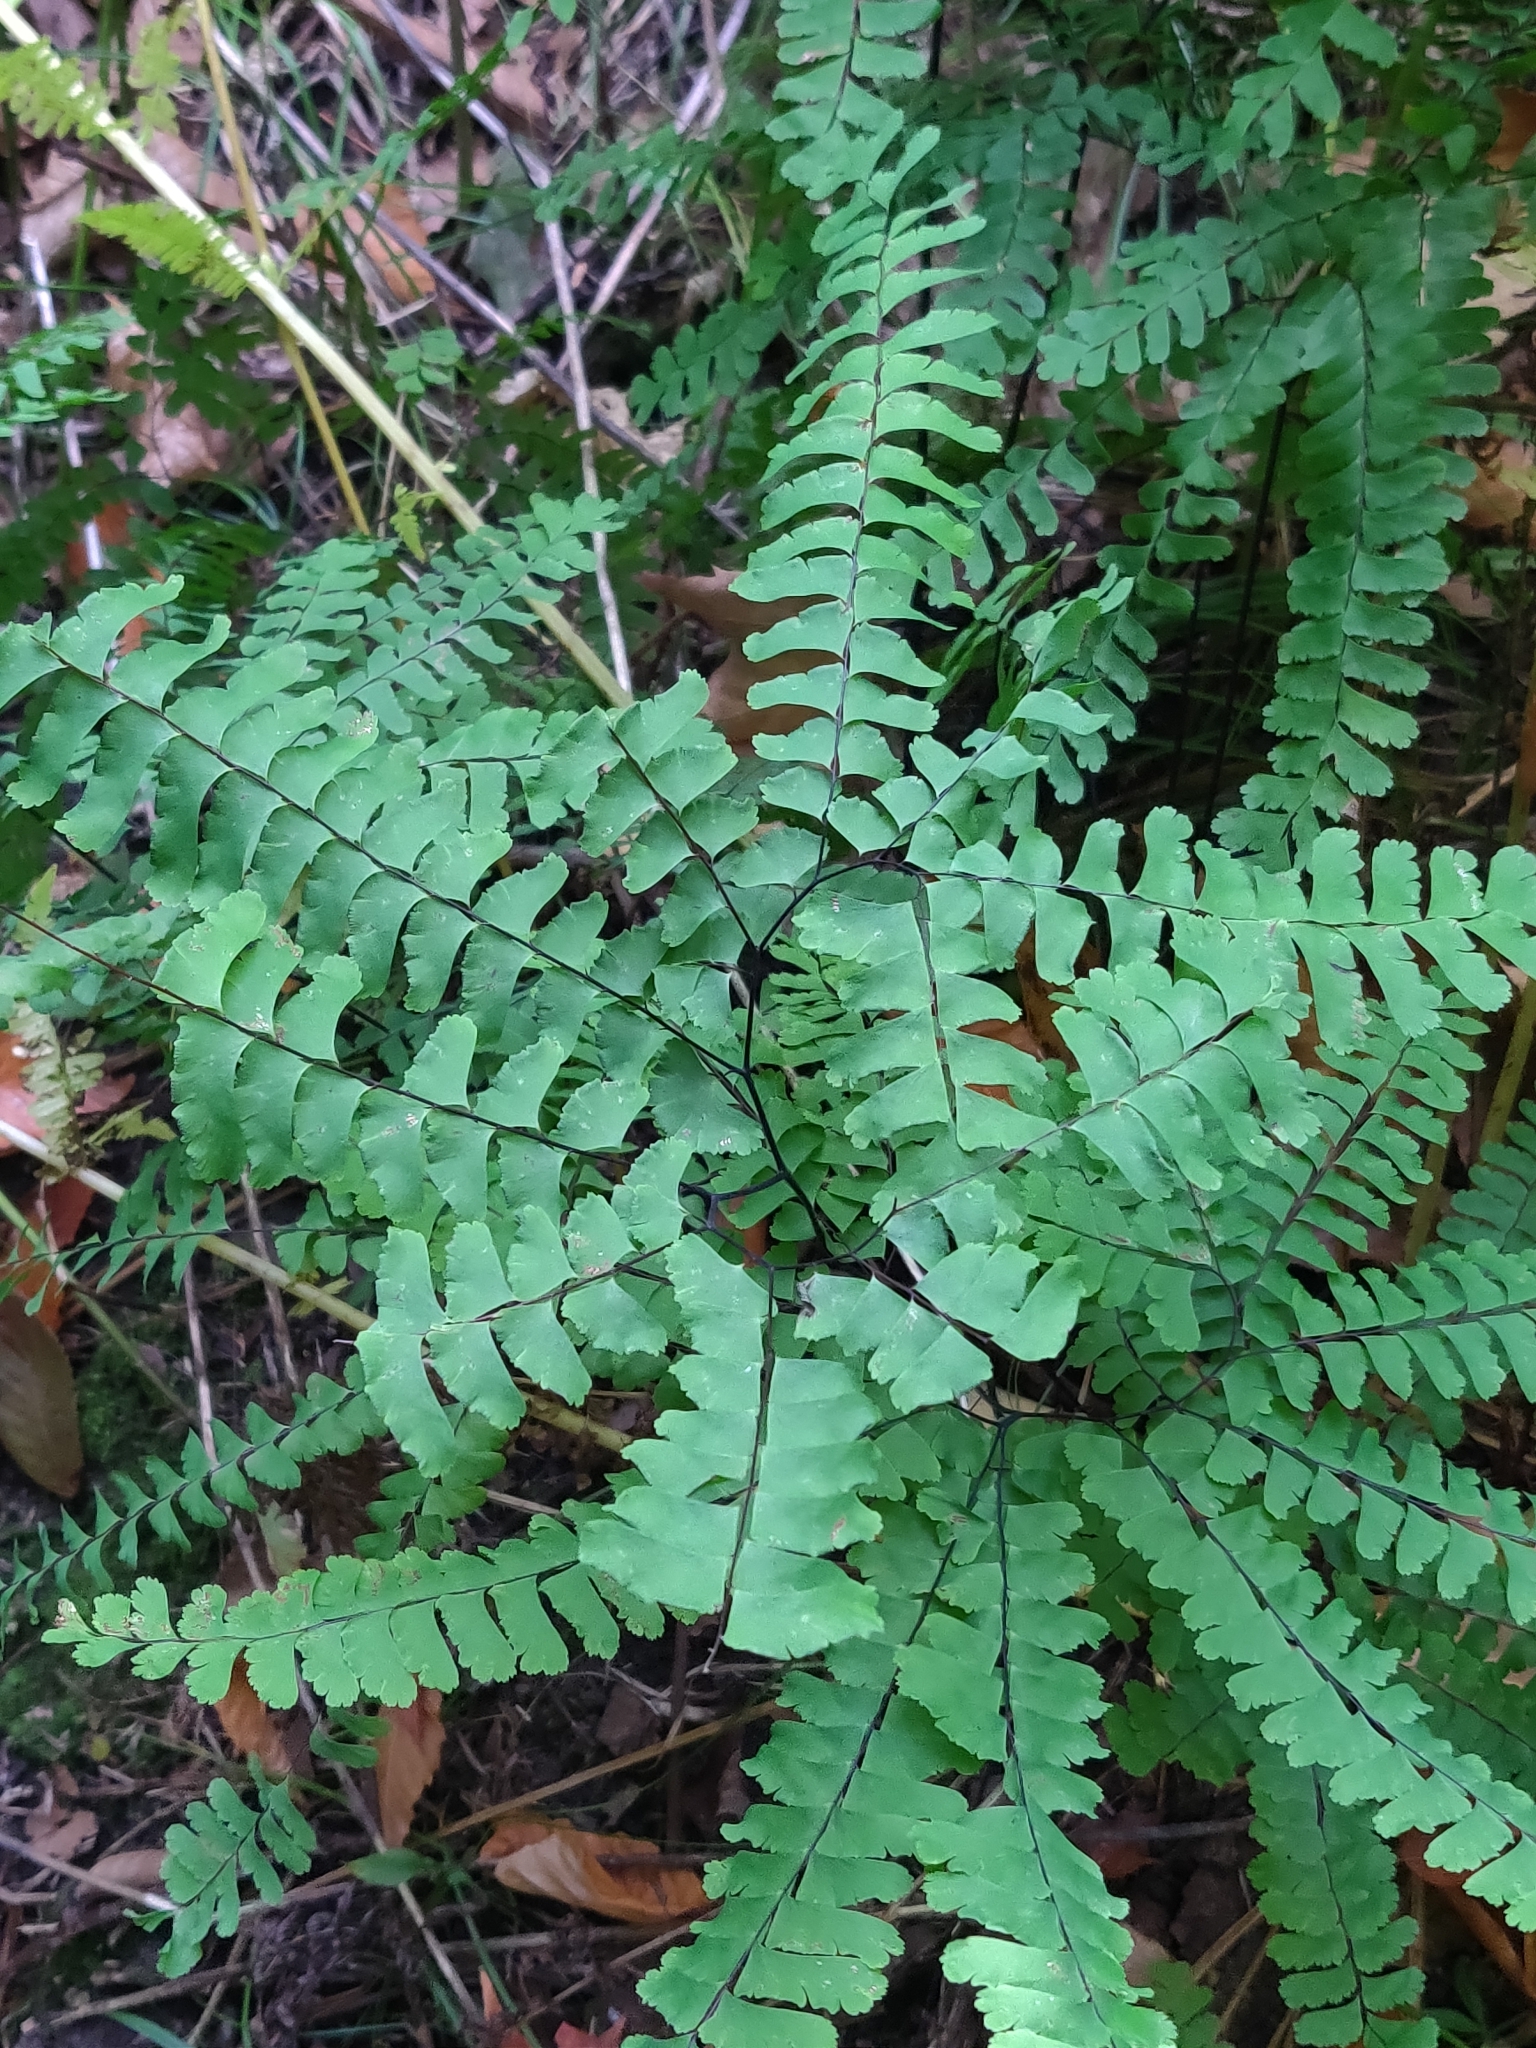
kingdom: Plantae
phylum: Tracheophyta
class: Polypodiopsida
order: Polypodiales
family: Pteridaceae
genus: Adiantum
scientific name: Adiantum pedatum
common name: Five-finger fern
